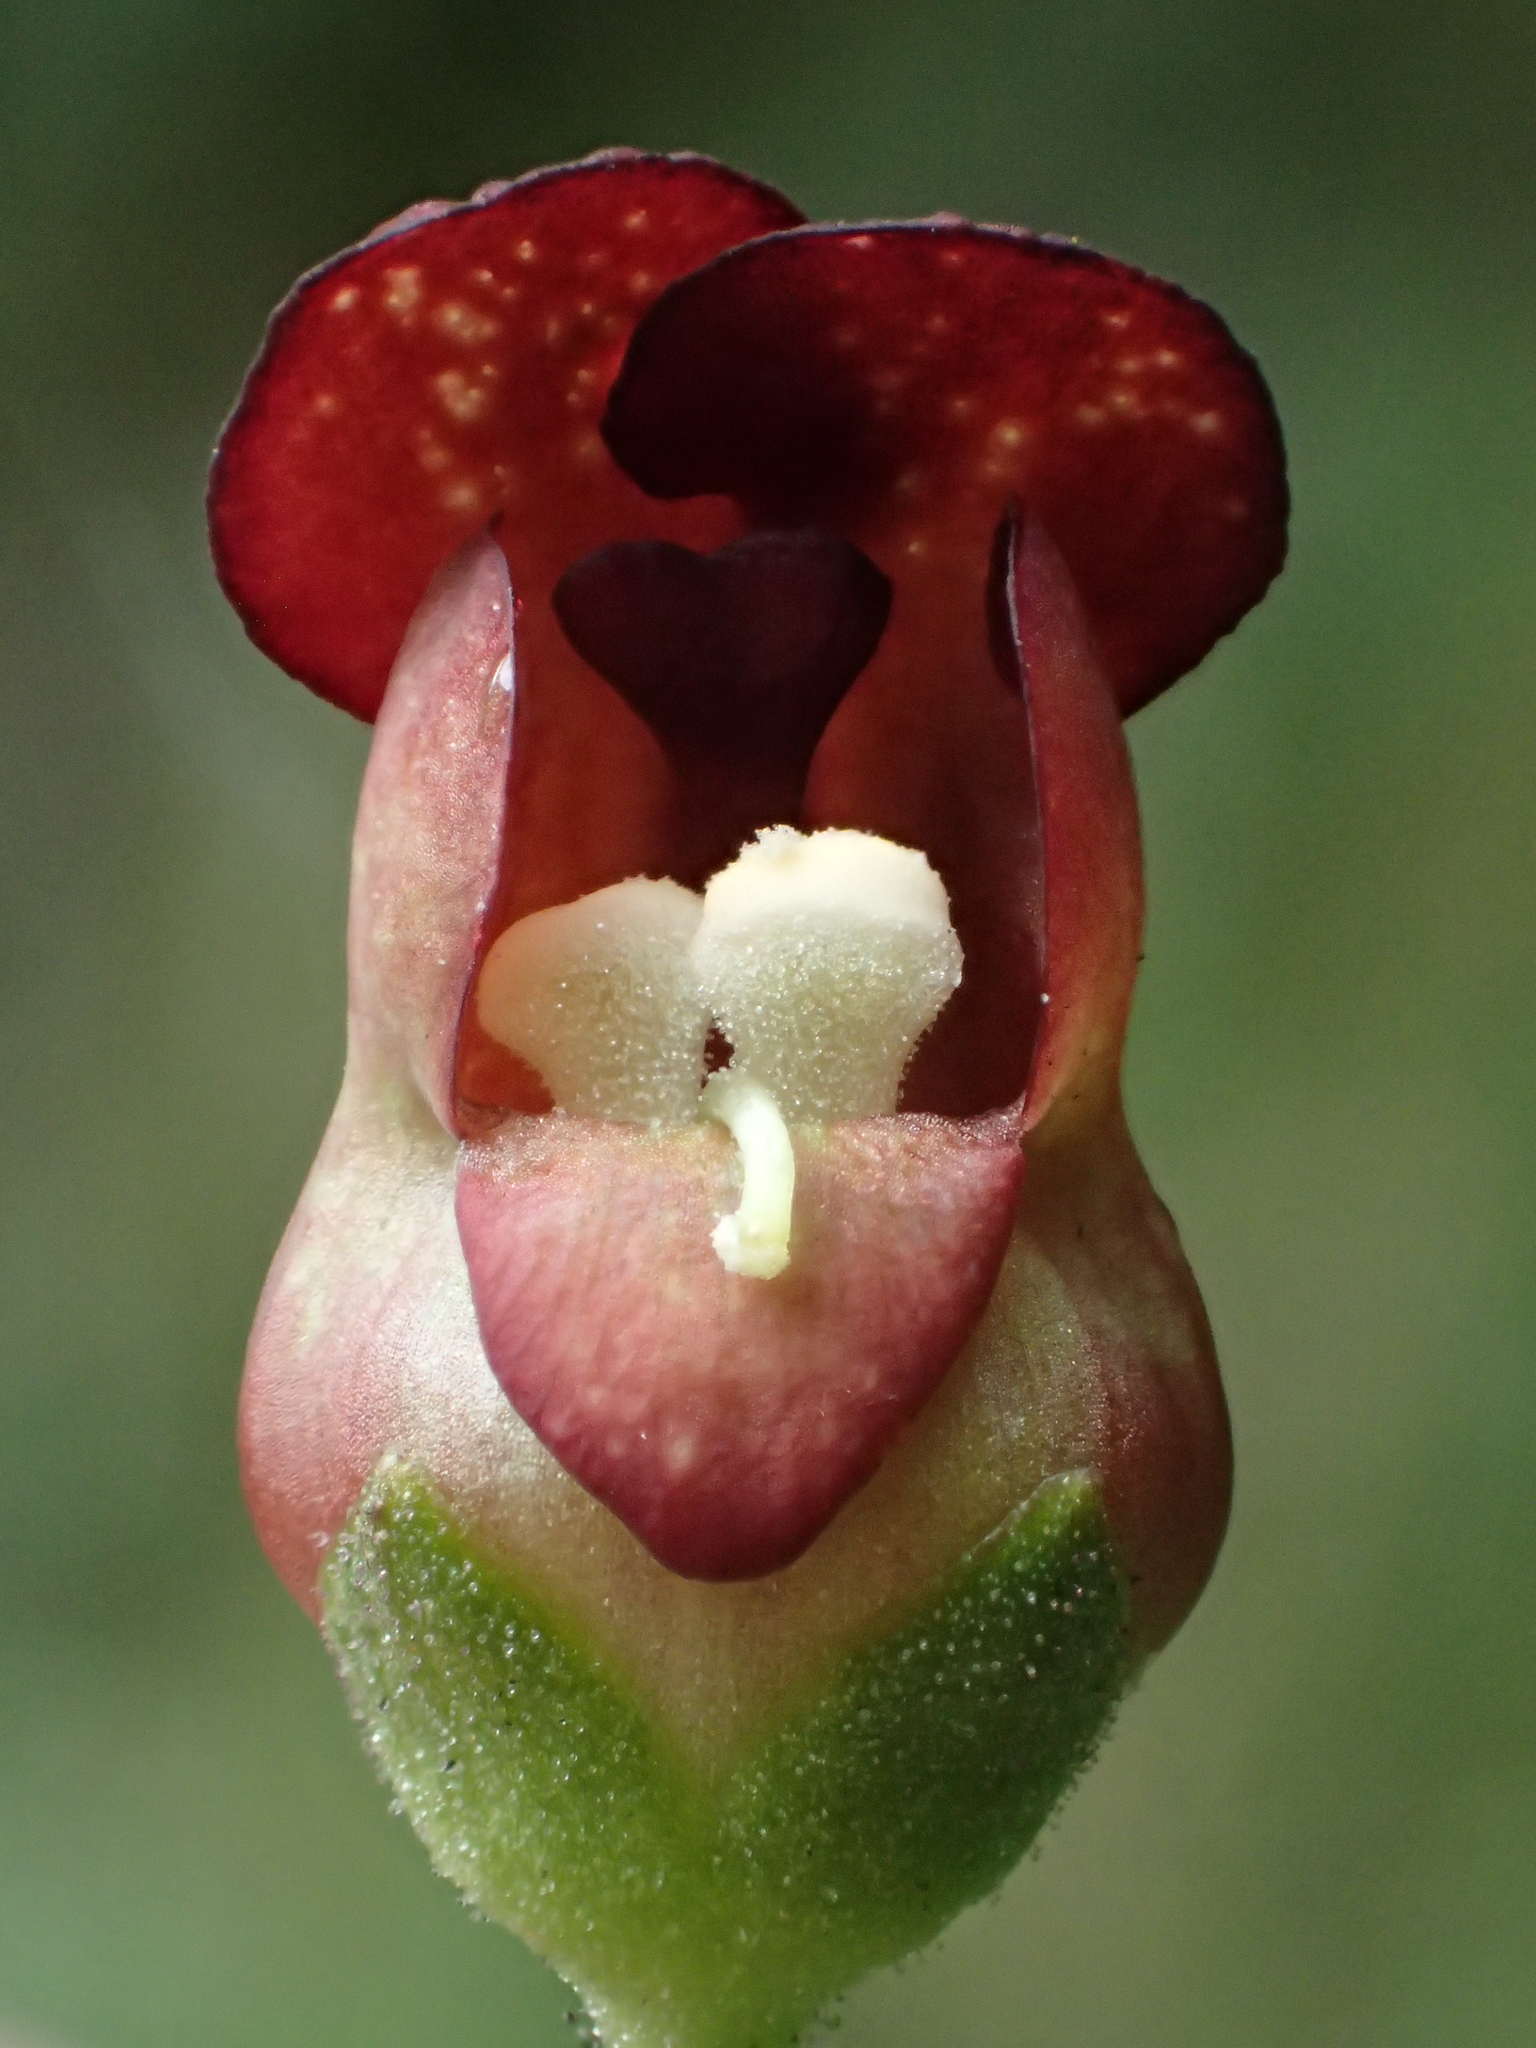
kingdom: Plantae
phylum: Tracheophyta
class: Magnoliopsida
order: Lamiales
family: Scrophulariaceae
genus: Scrophularia
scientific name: Scrophularia yoshimurae
